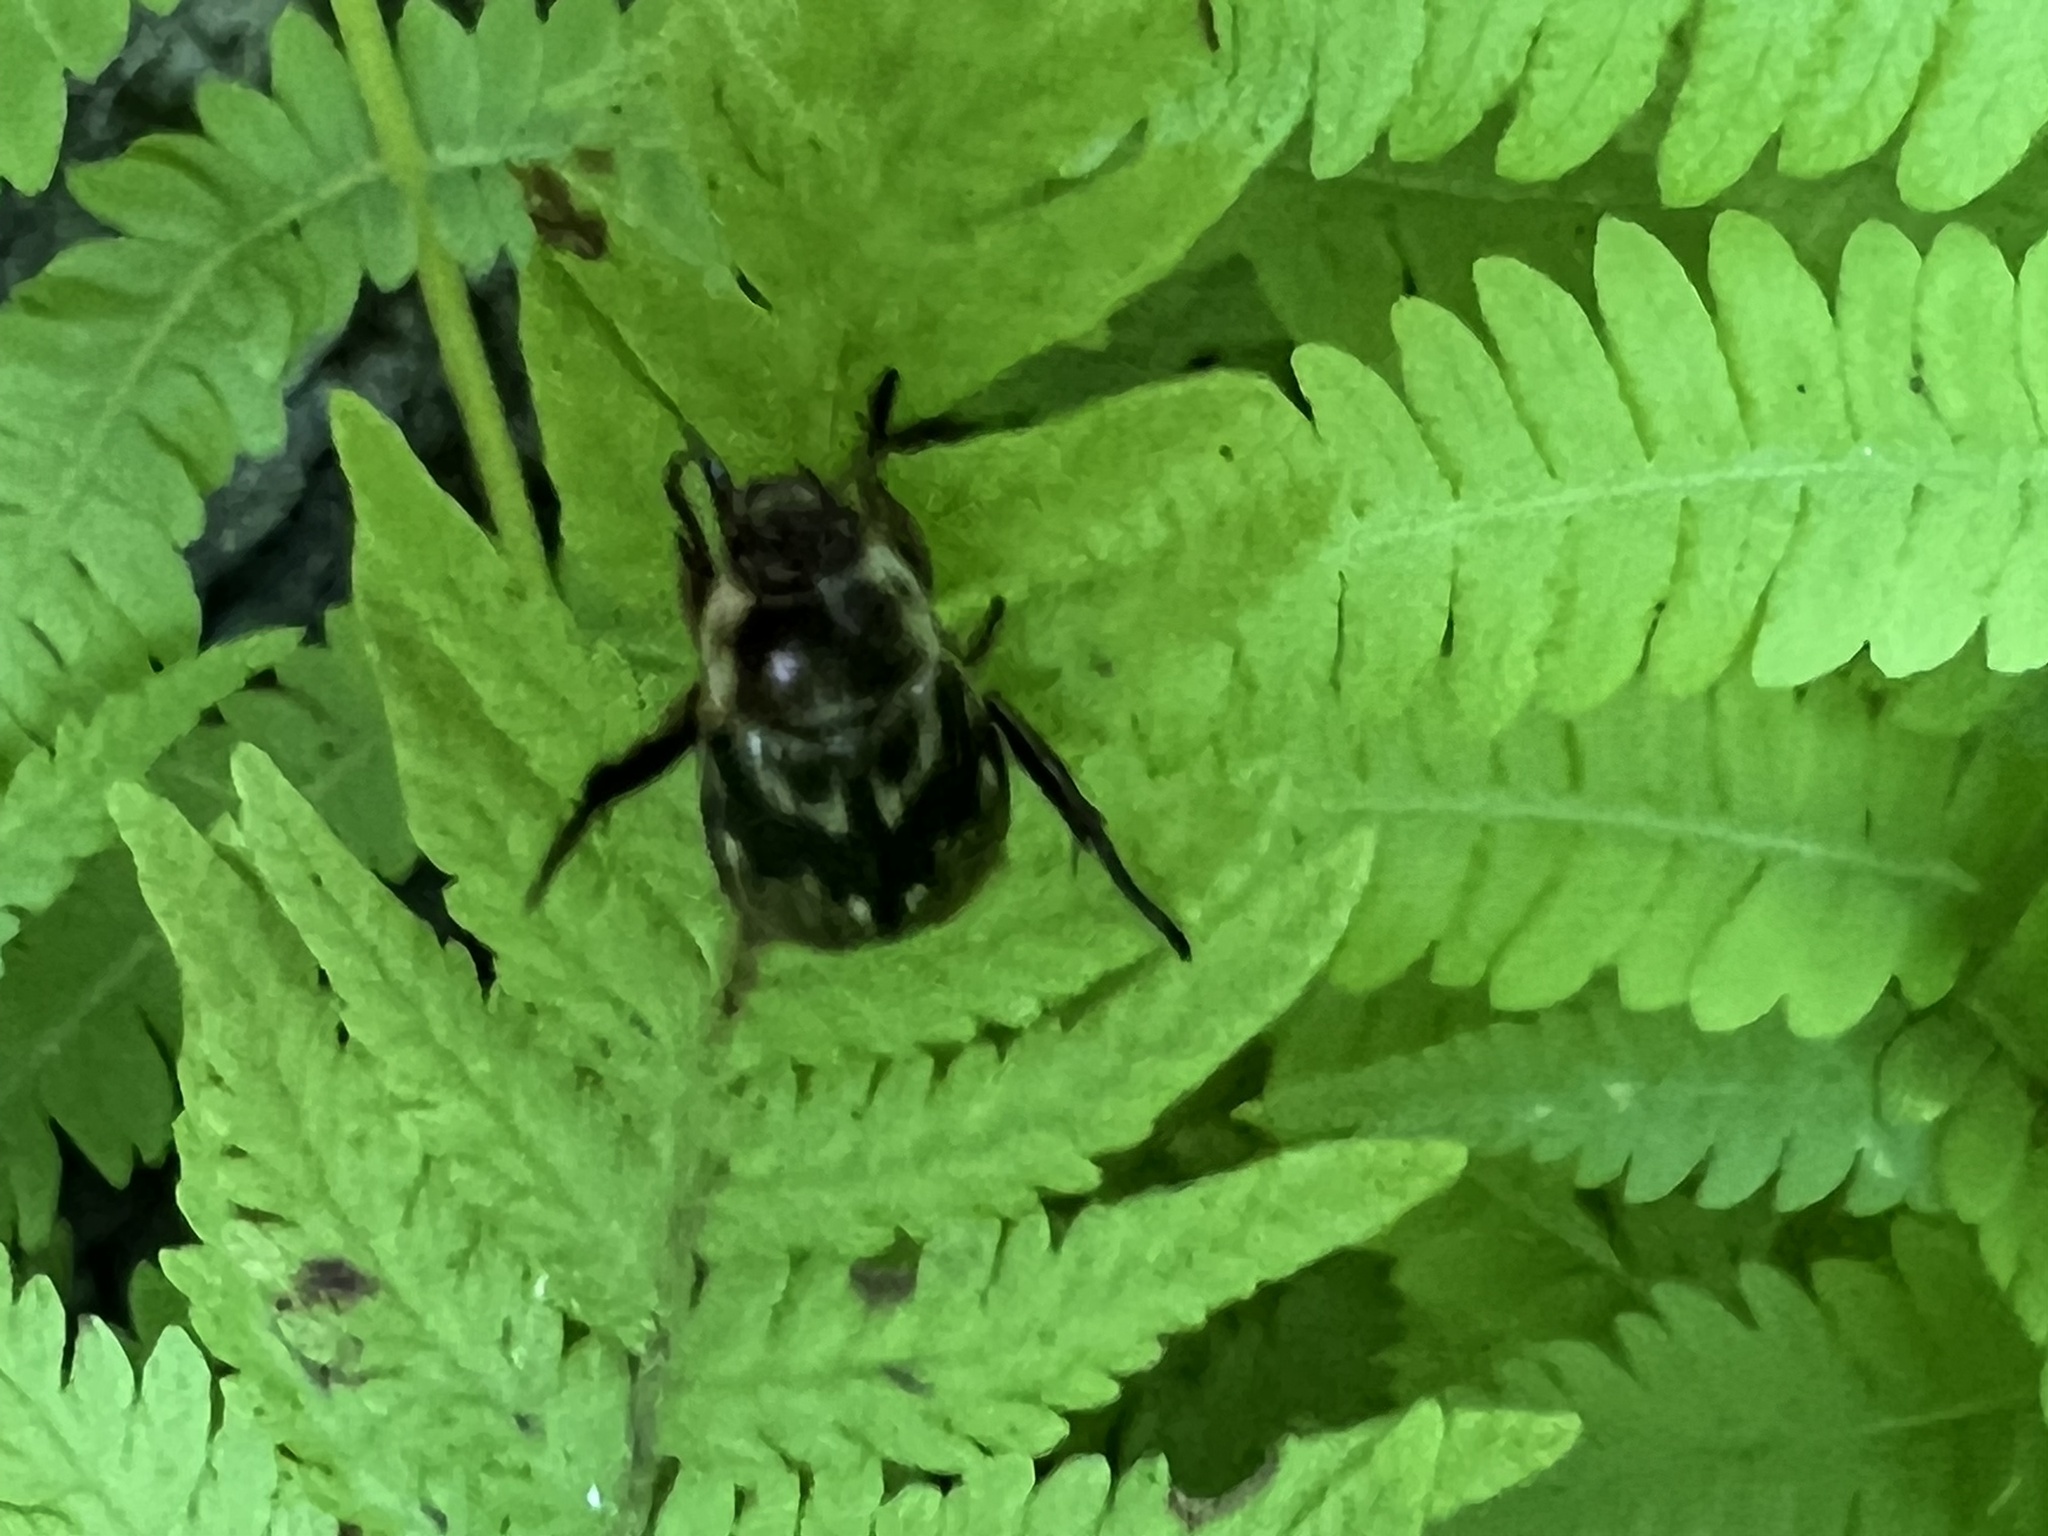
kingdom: Animalia
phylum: Arthropoda
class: Insecta
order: Coleoptera
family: Scarabaeidae
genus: Exomala
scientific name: Exomala orientalis
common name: Oriental beetle
